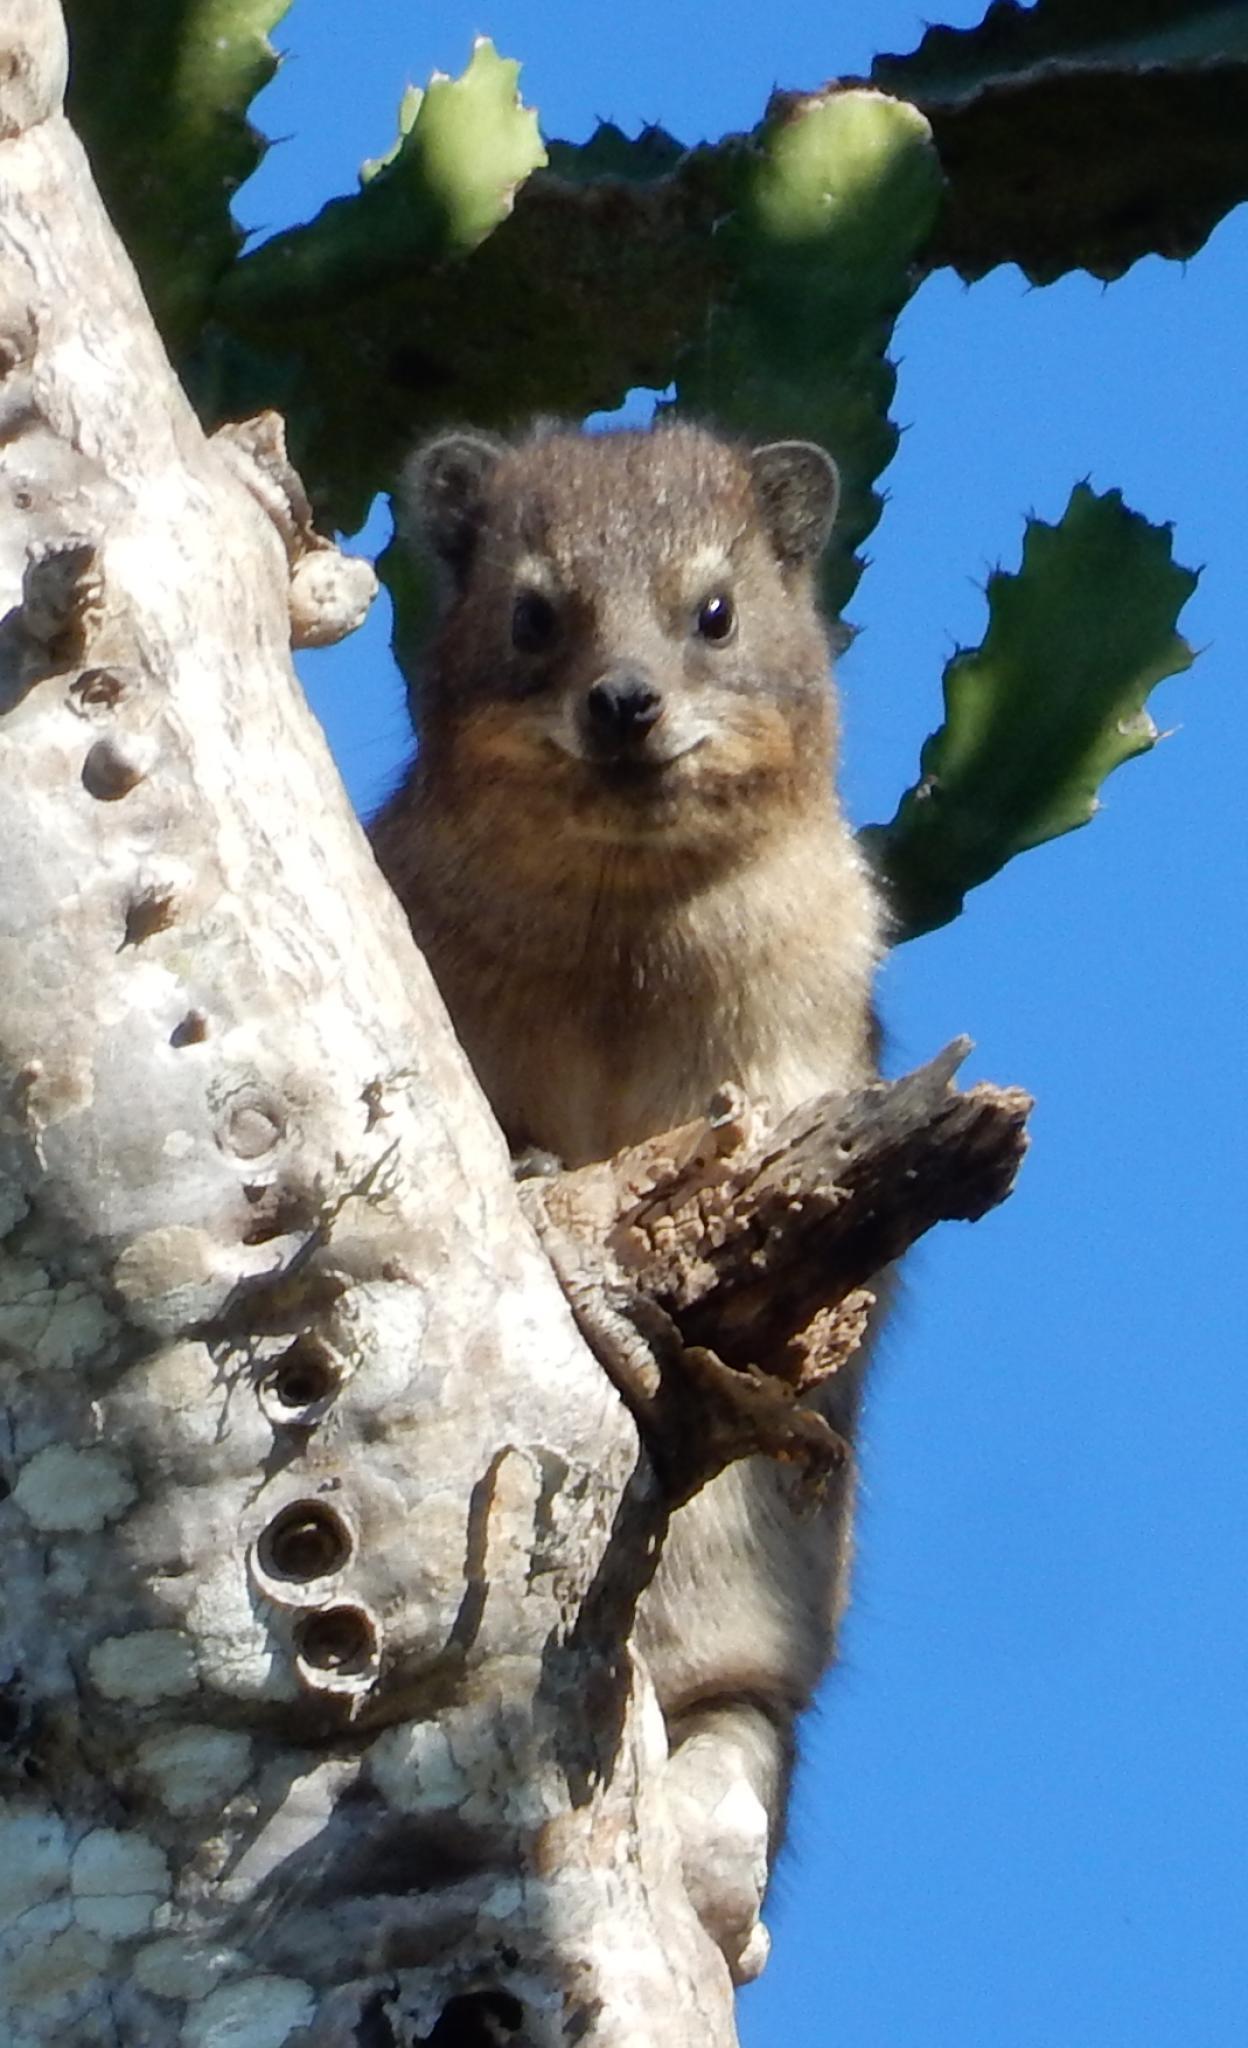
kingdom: Animalia
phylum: Chordata
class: Mammalia
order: Hyracoidea
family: Procaviidae
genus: Procavia
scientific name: Procavia capensis
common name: Rock hyrax
